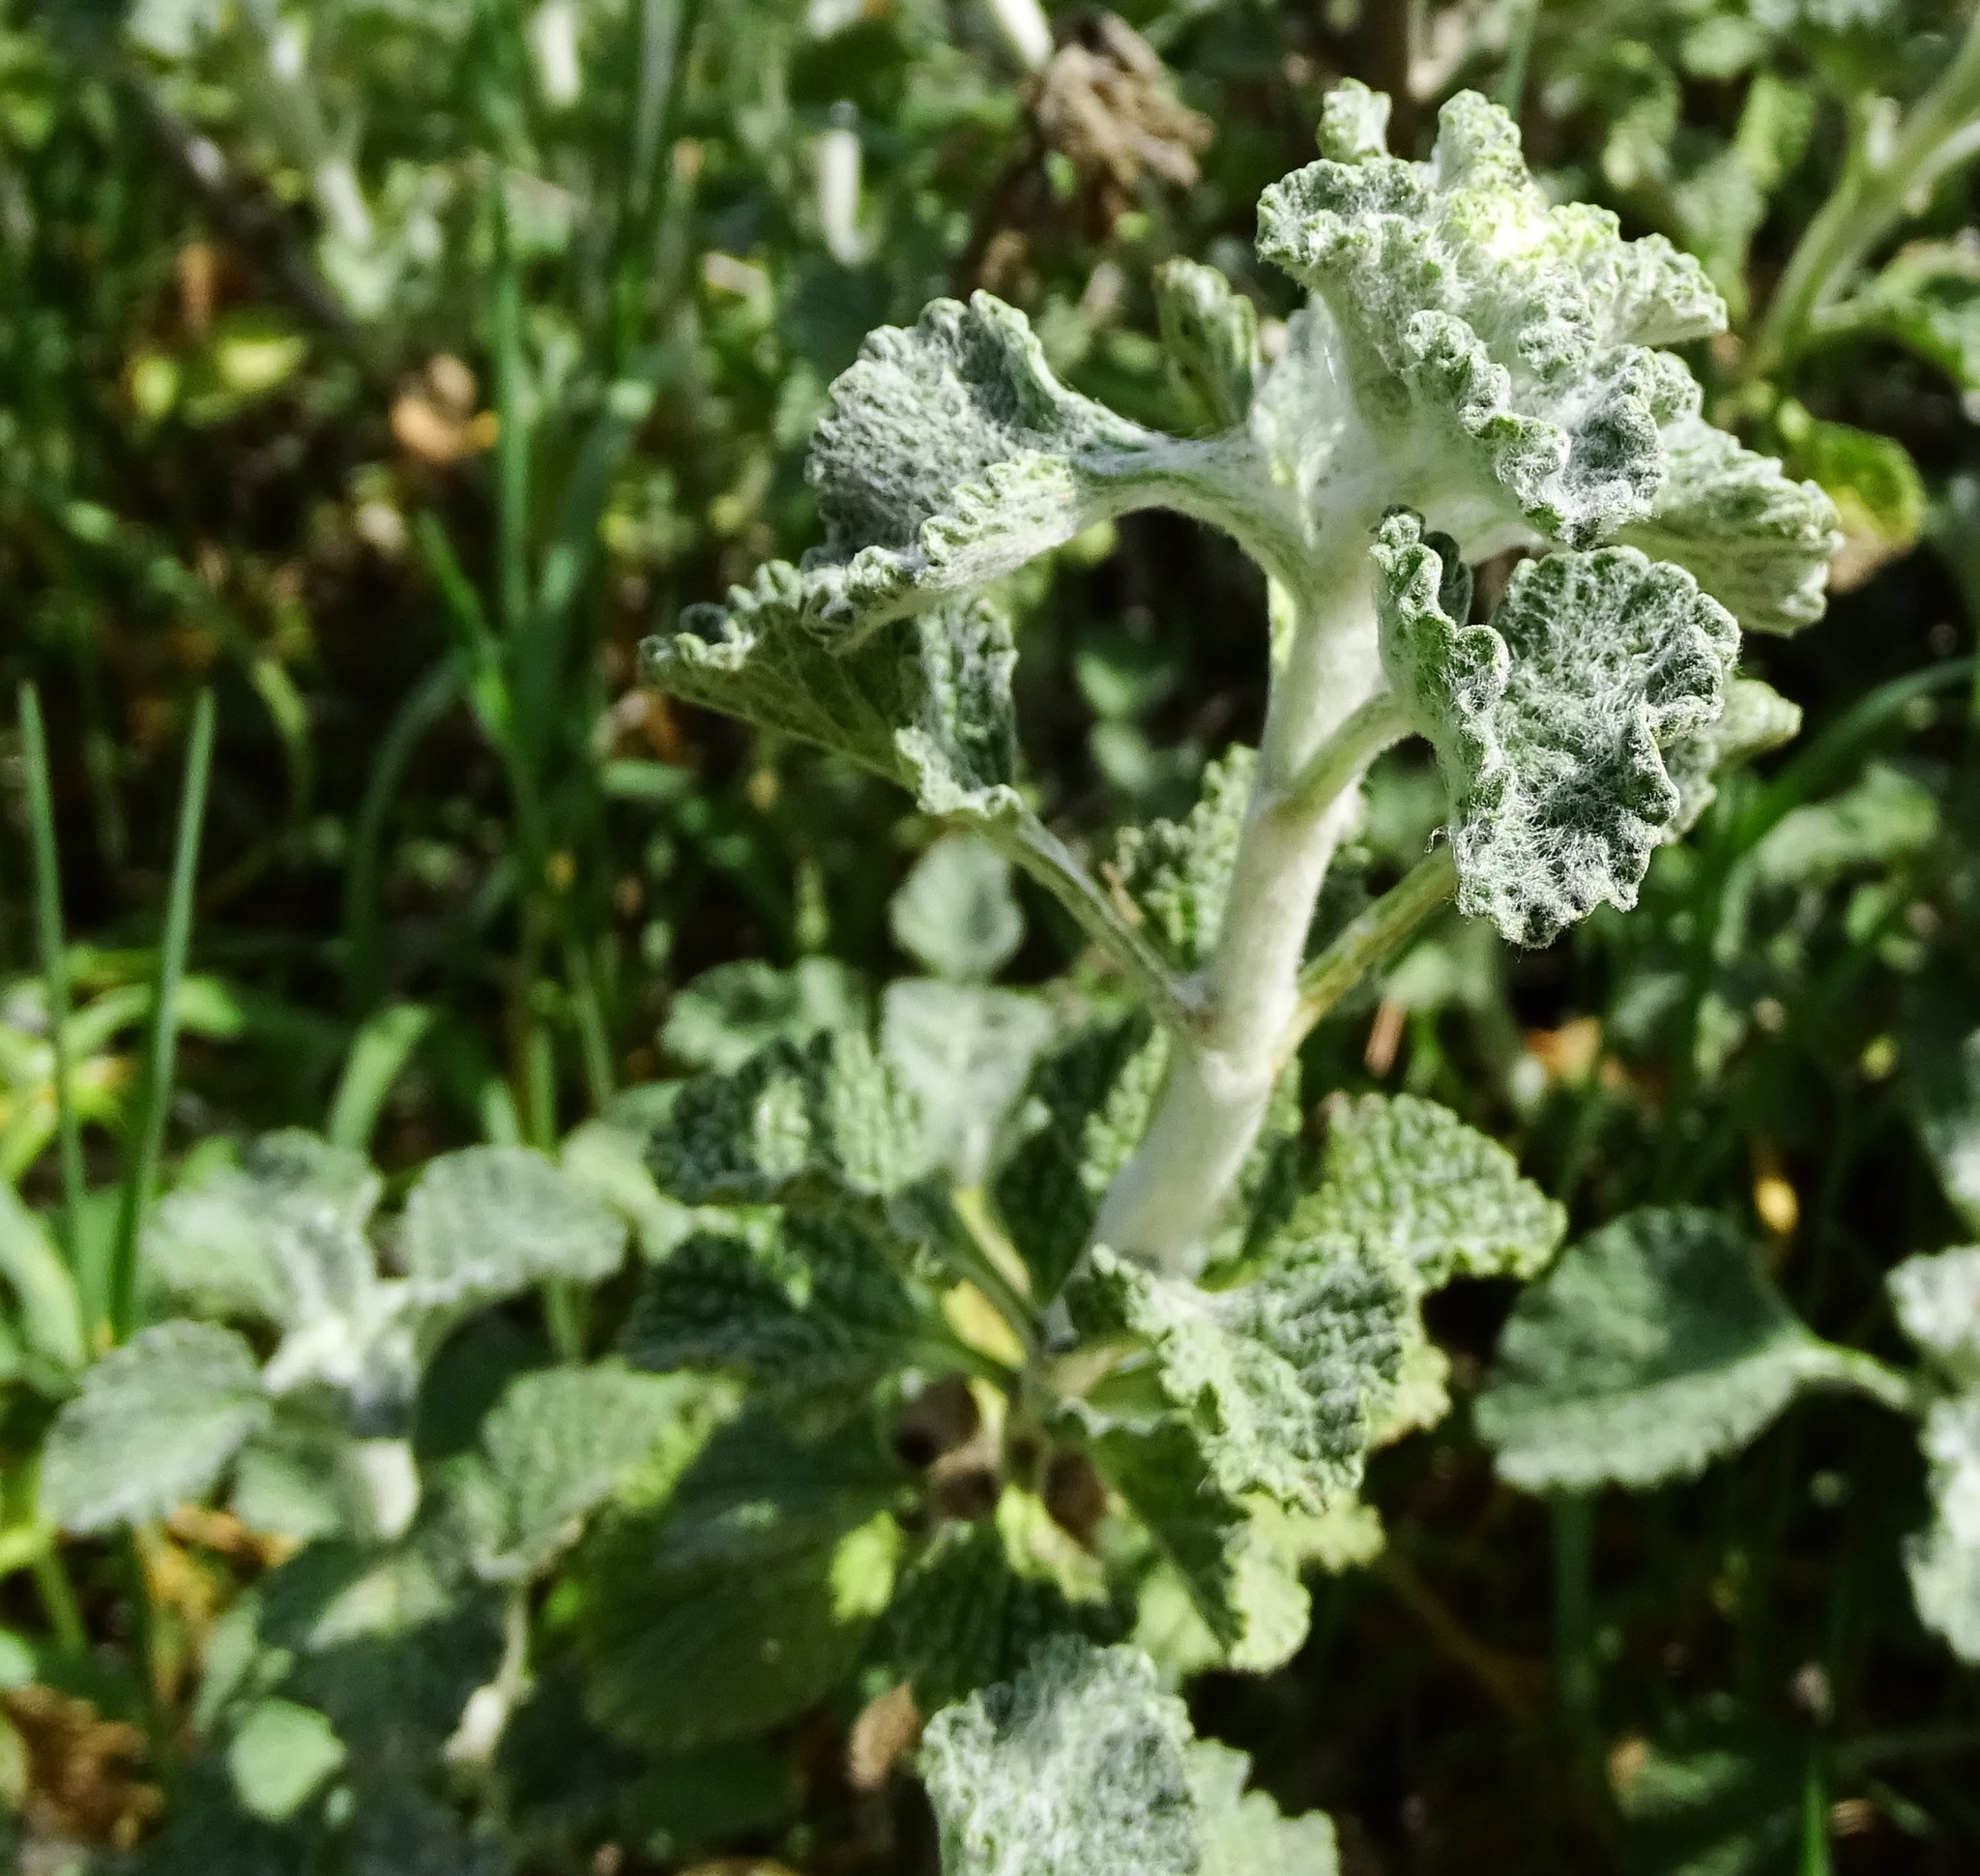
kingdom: Plantae
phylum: Tracheophyta
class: Magnoliopsida
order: Lamiales
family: Lamiaceae
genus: Marrubium
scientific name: Marrubium vulgare
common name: Horehound
